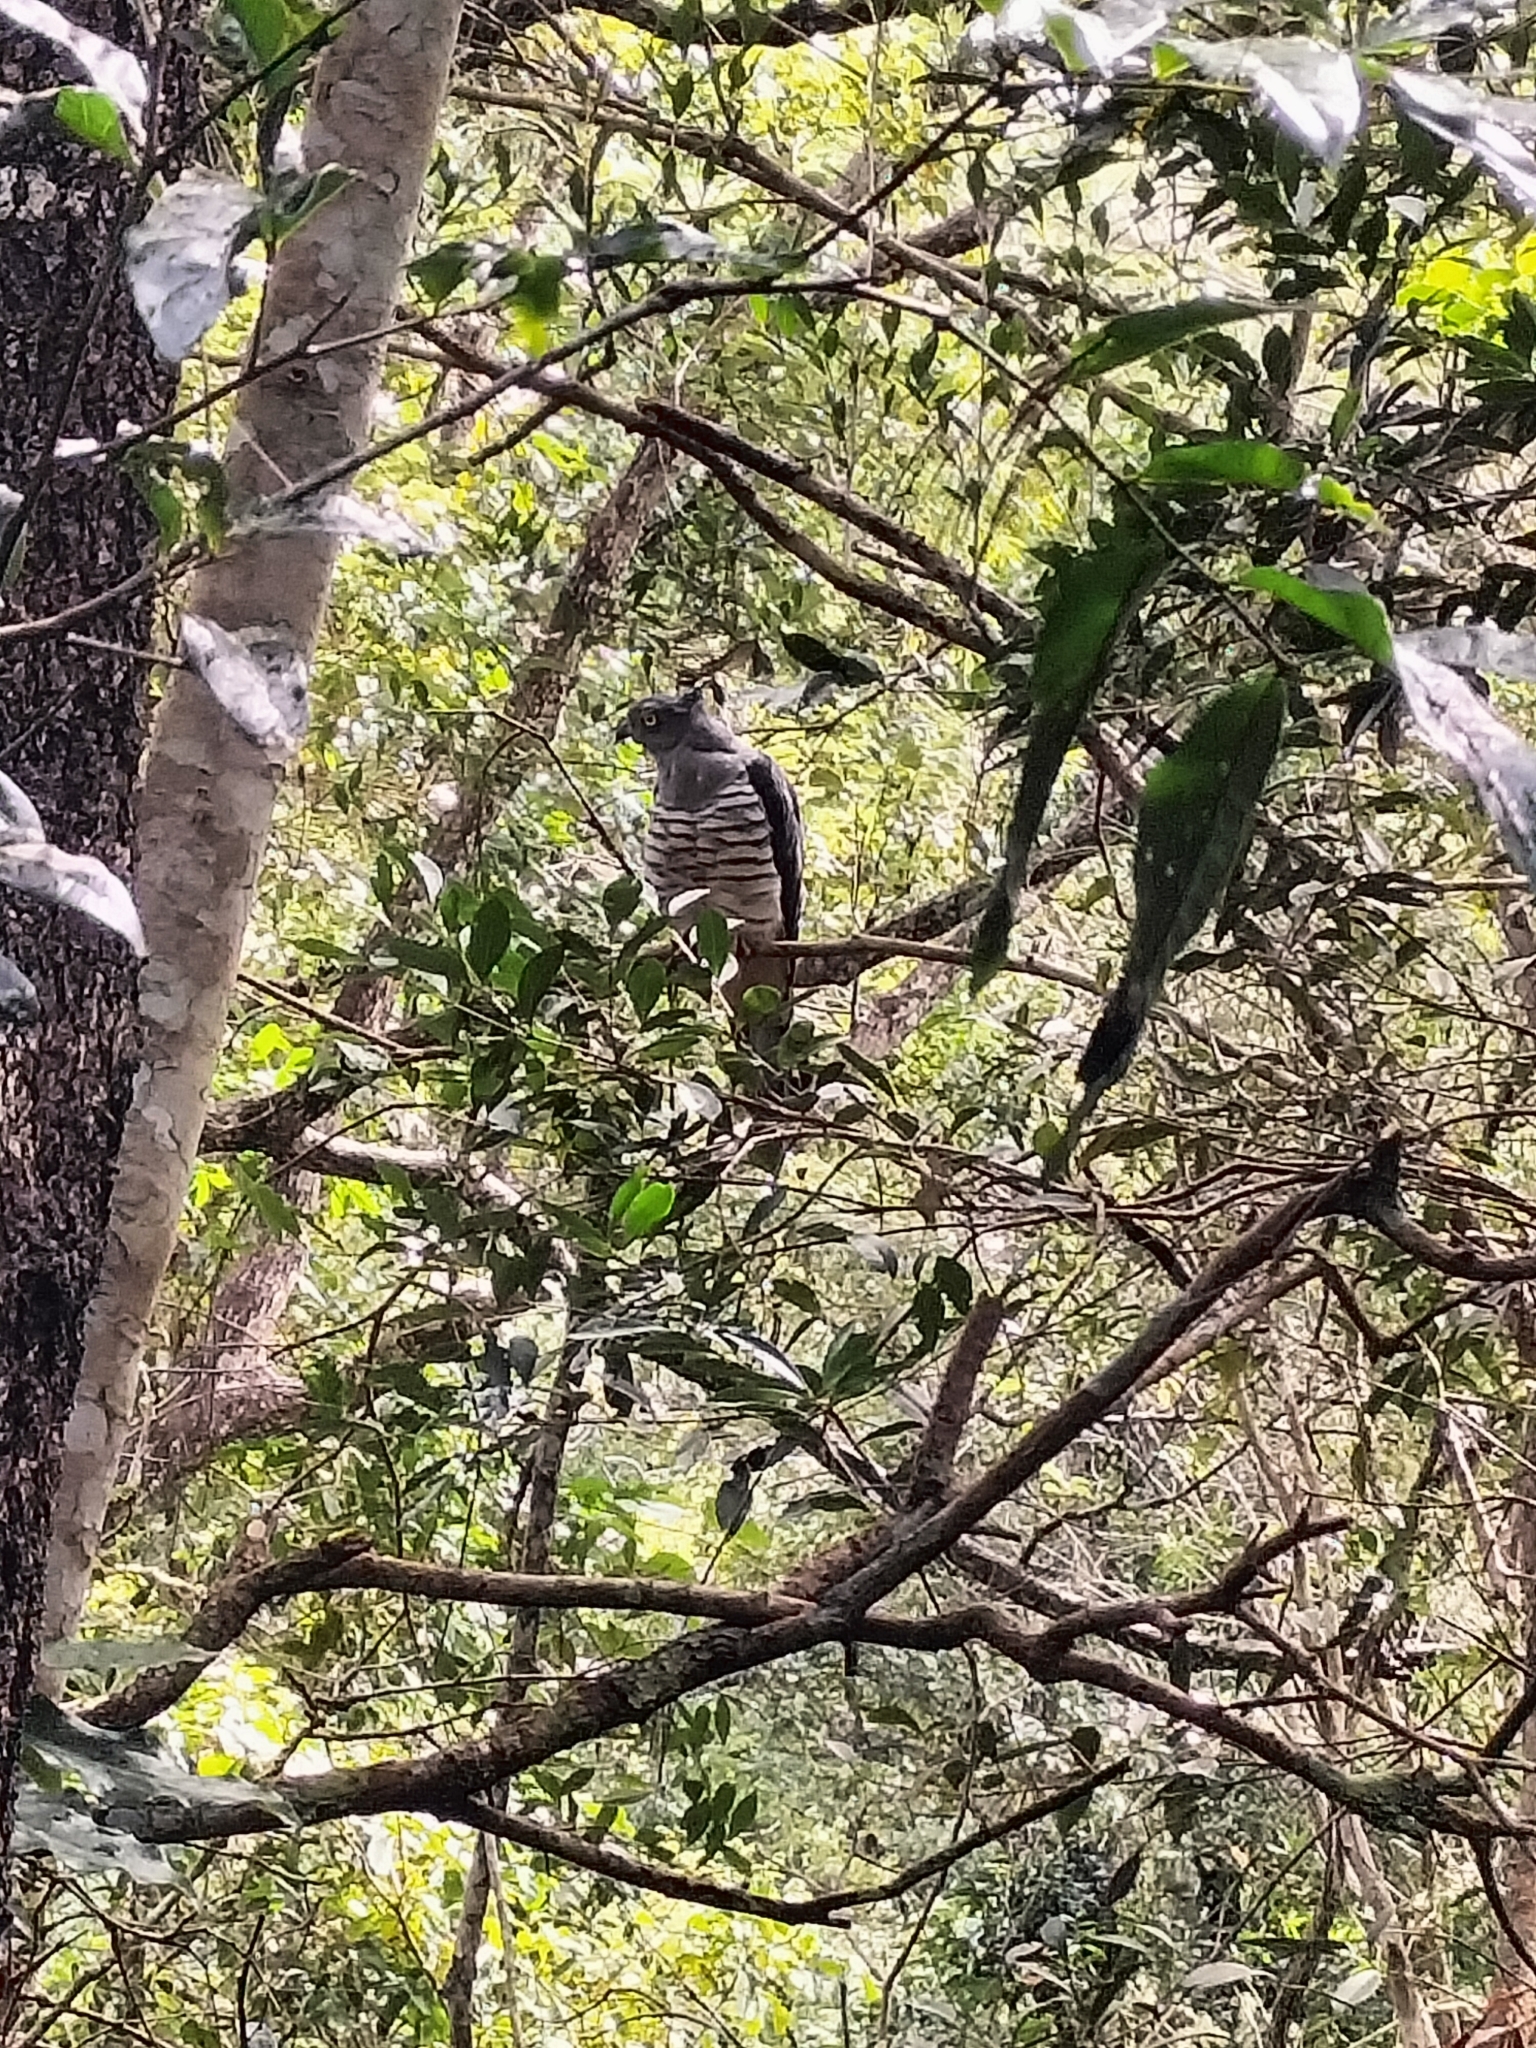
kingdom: Animalia
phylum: Chordata
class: Aves
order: Accipitriformes
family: Accipitridae
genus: Aviceda
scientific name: Aviceda subcristata
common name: Pacific baza
